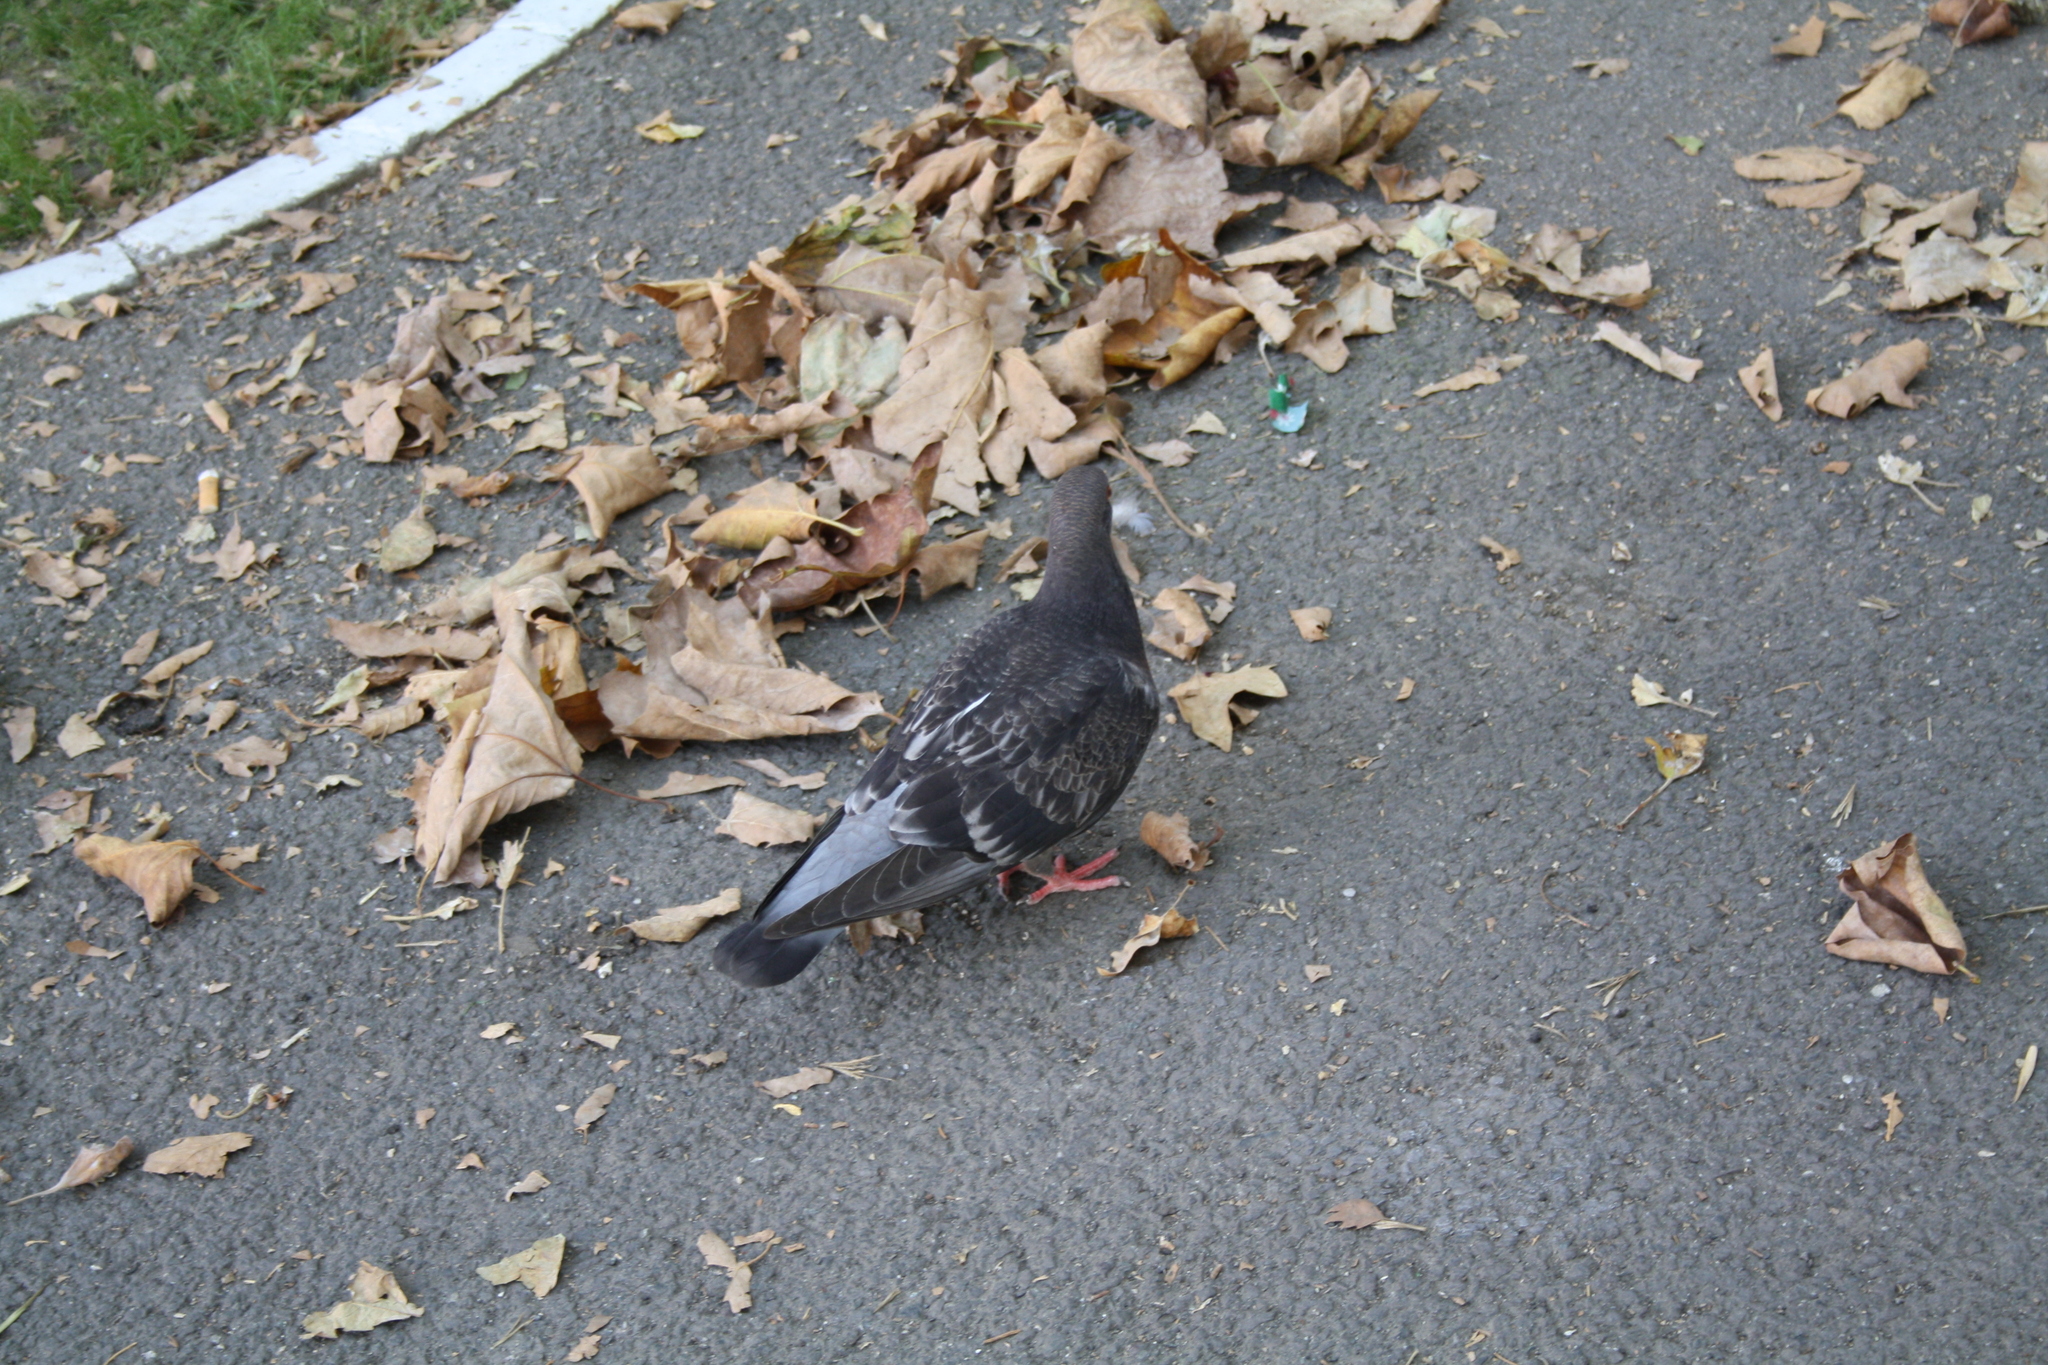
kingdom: Animalia
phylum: Chordata
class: Aves
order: Columbiformes
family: Columbidae
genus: Columba
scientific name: Columba livia
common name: Rock pigeon
